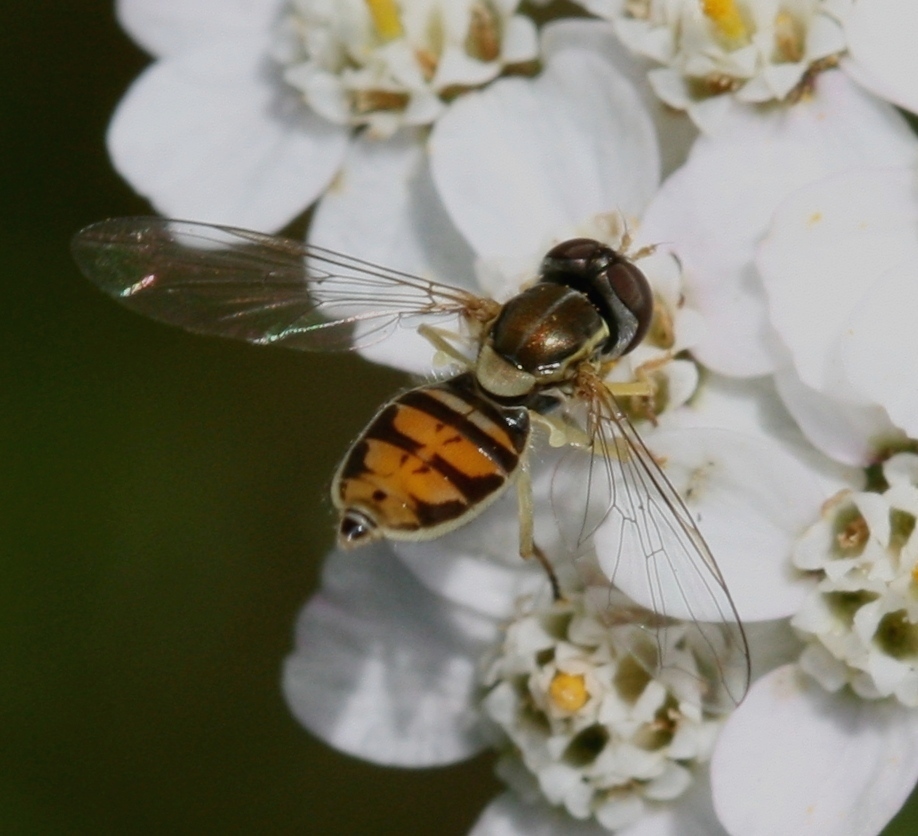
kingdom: Animalia
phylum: Arthropoda
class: Insecta
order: Diptera
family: Syrphidae
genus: Toxomerus
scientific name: Toxomerus marginatus
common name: Syrphid fly
